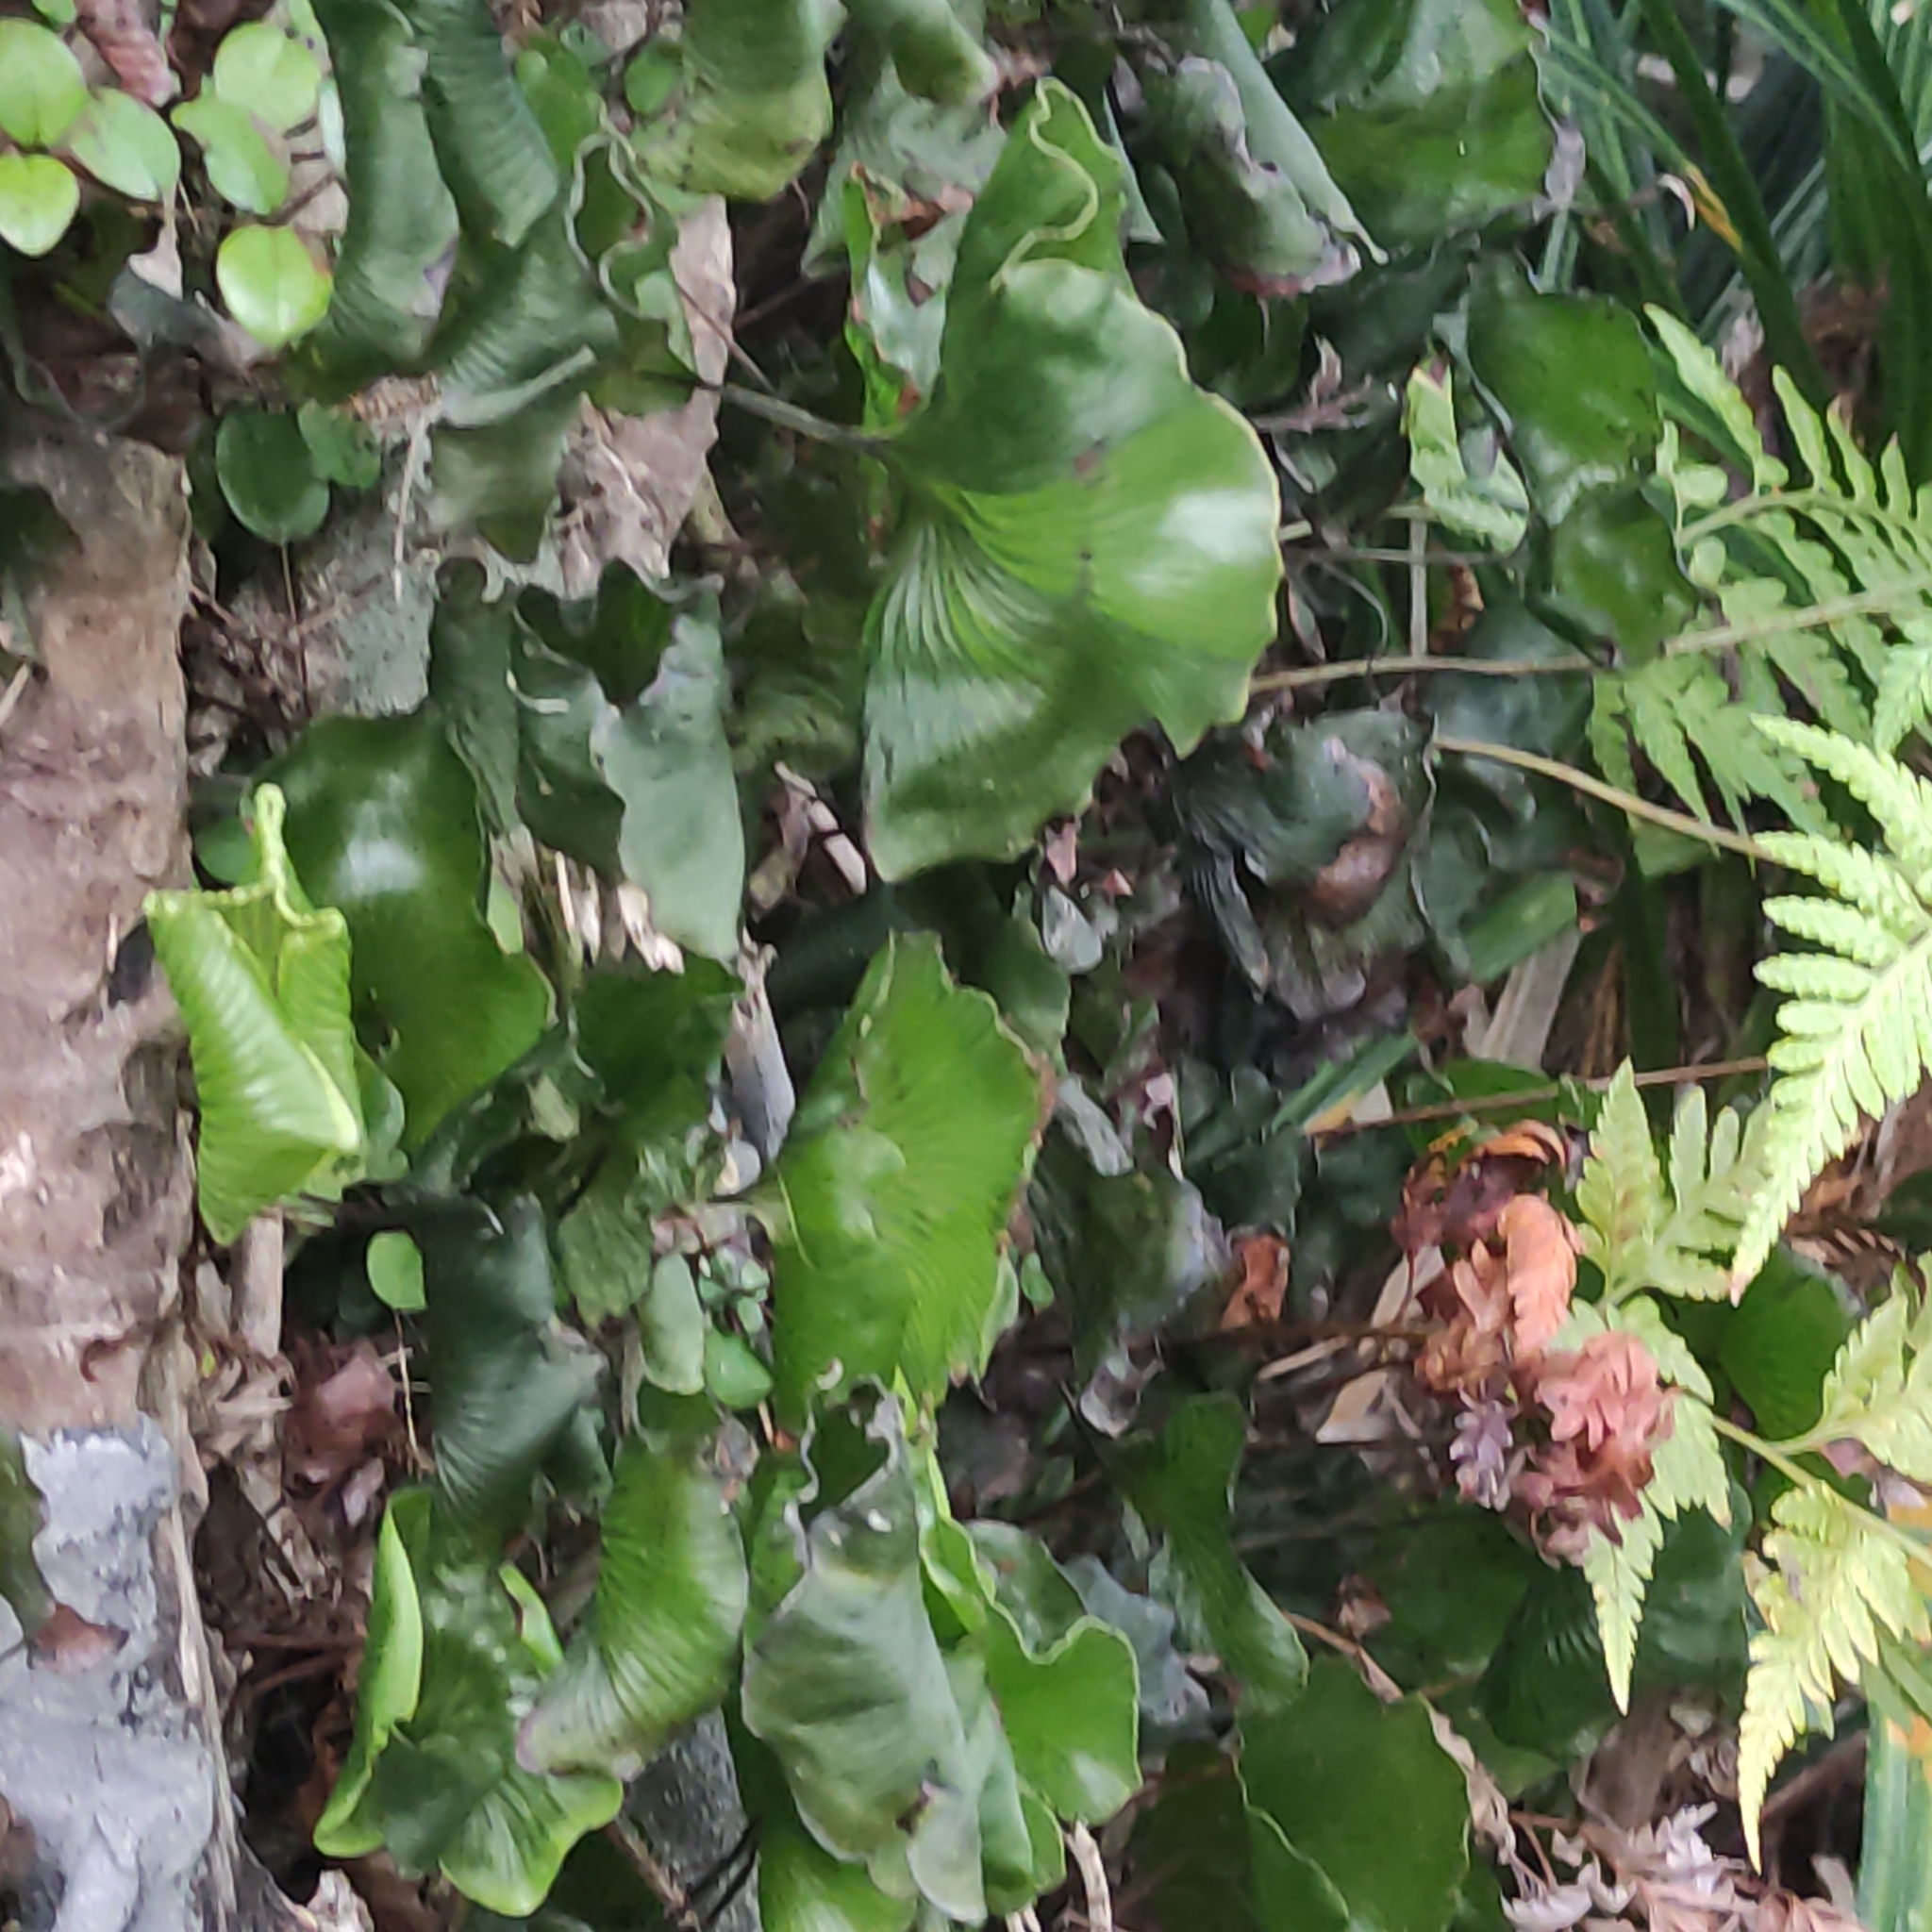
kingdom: Plantae
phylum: Tracheophyta
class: Polypodiopsida
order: Hymenophyllales
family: Hymenophyllaceae
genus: Hymenophyllum
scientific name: Hymenophyllum nephrophyllum
